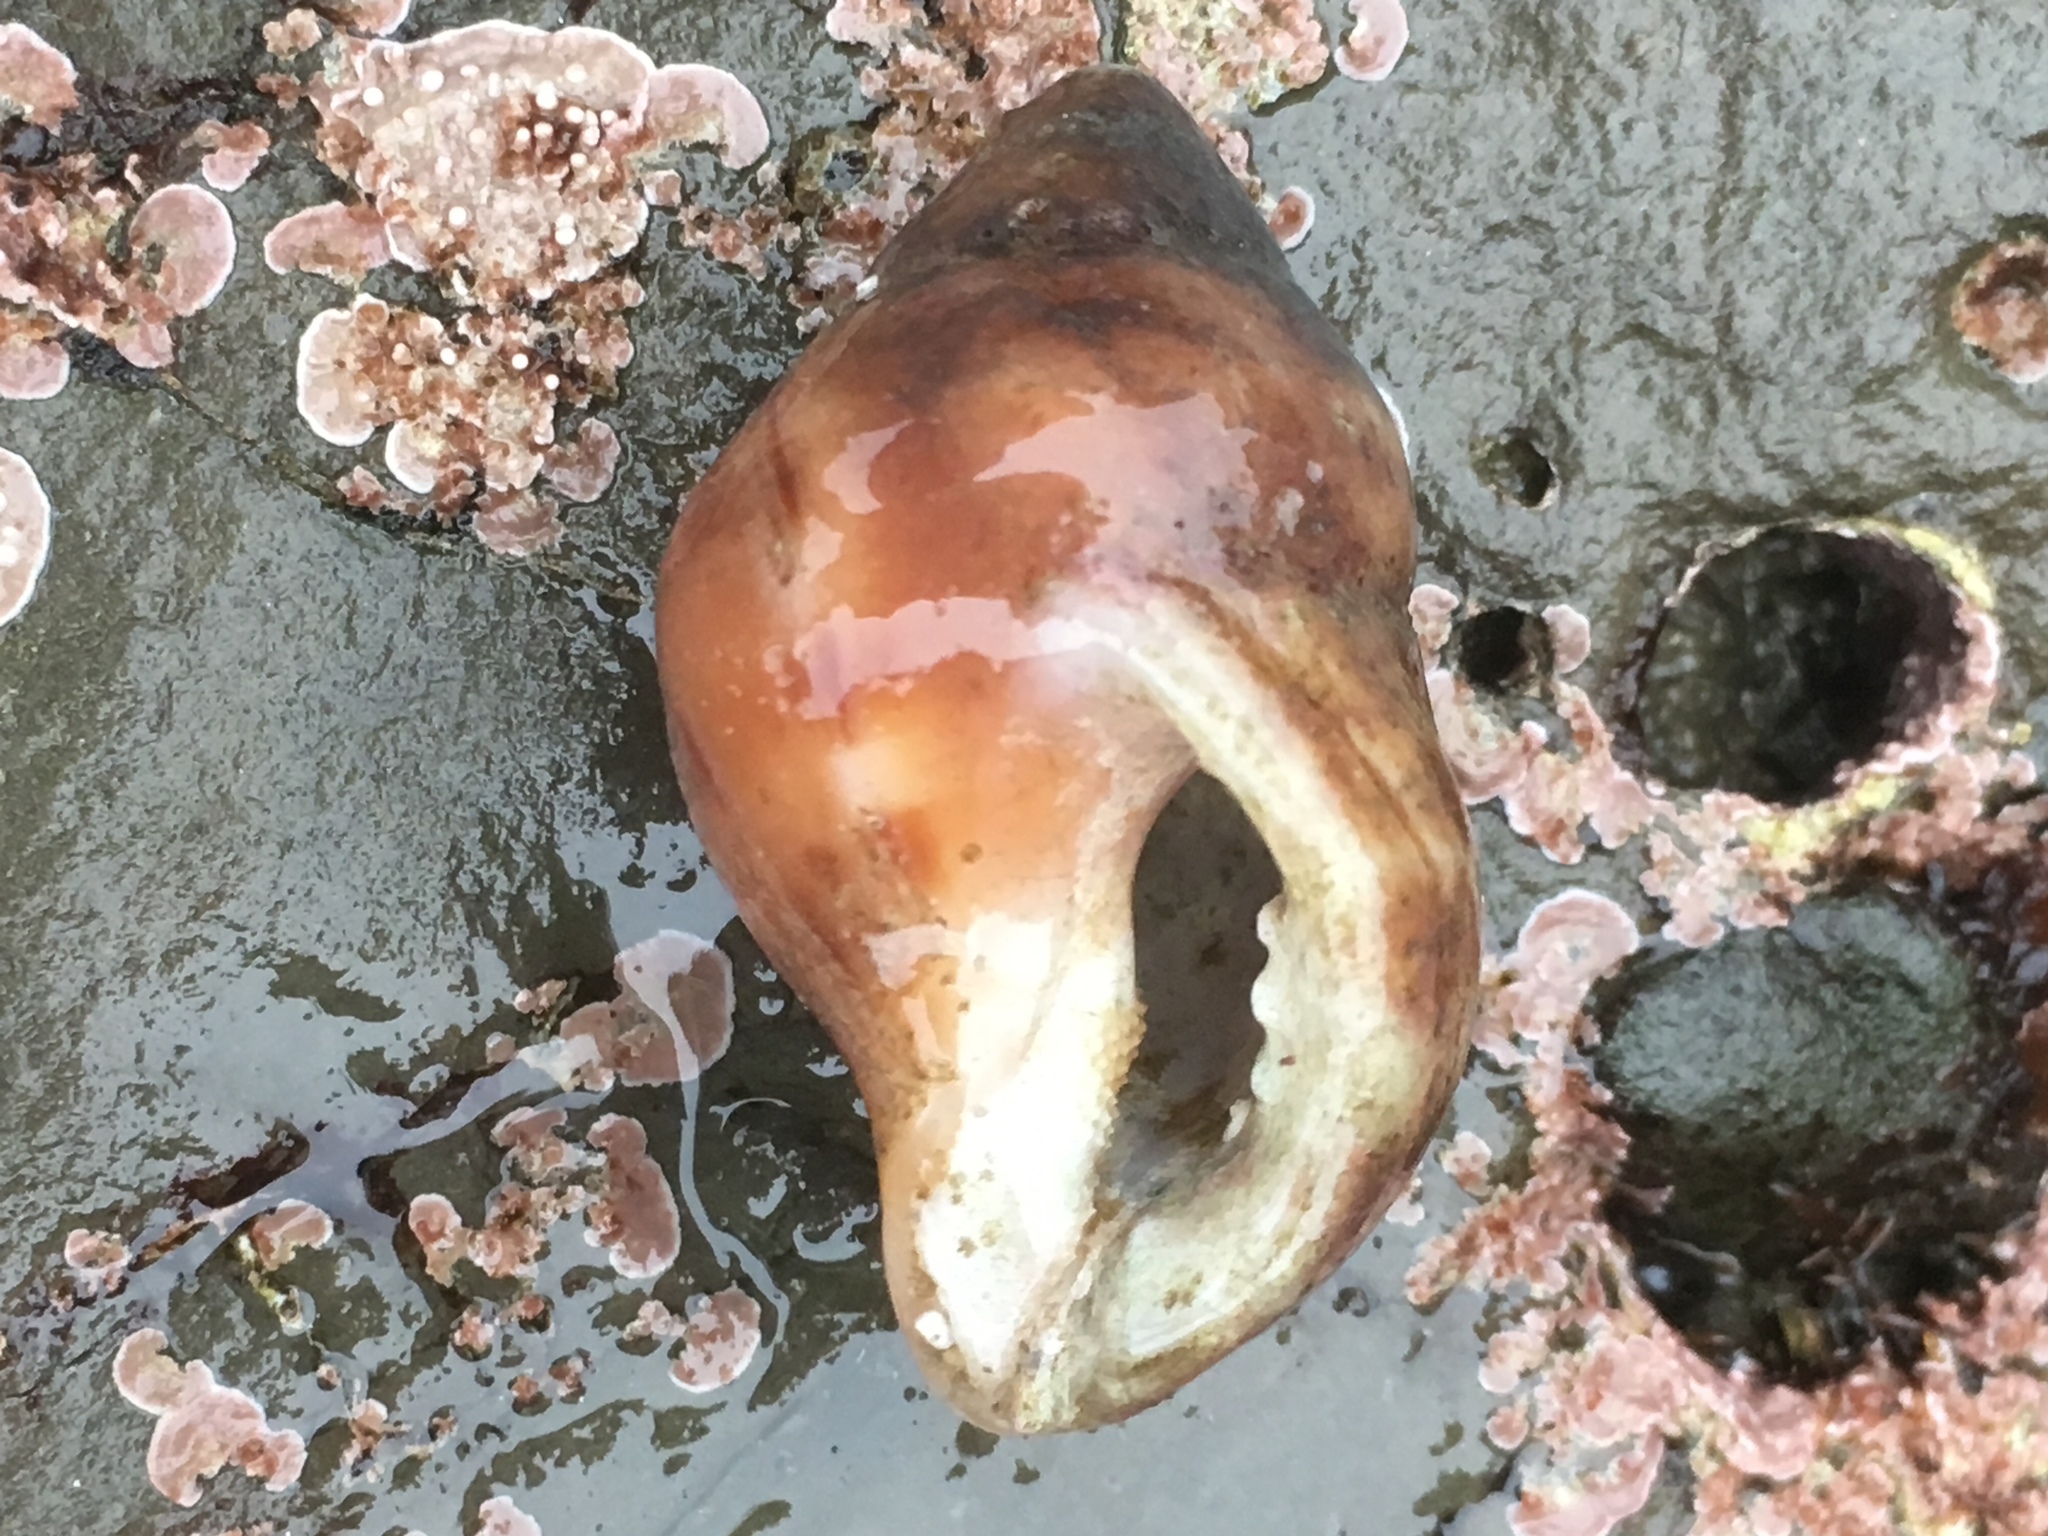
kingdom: Animalia
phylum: Mollusca
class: Gastropoda
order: Neogastropoda
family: Muricidae
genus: Nucella
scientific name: Nucella lamellosa
